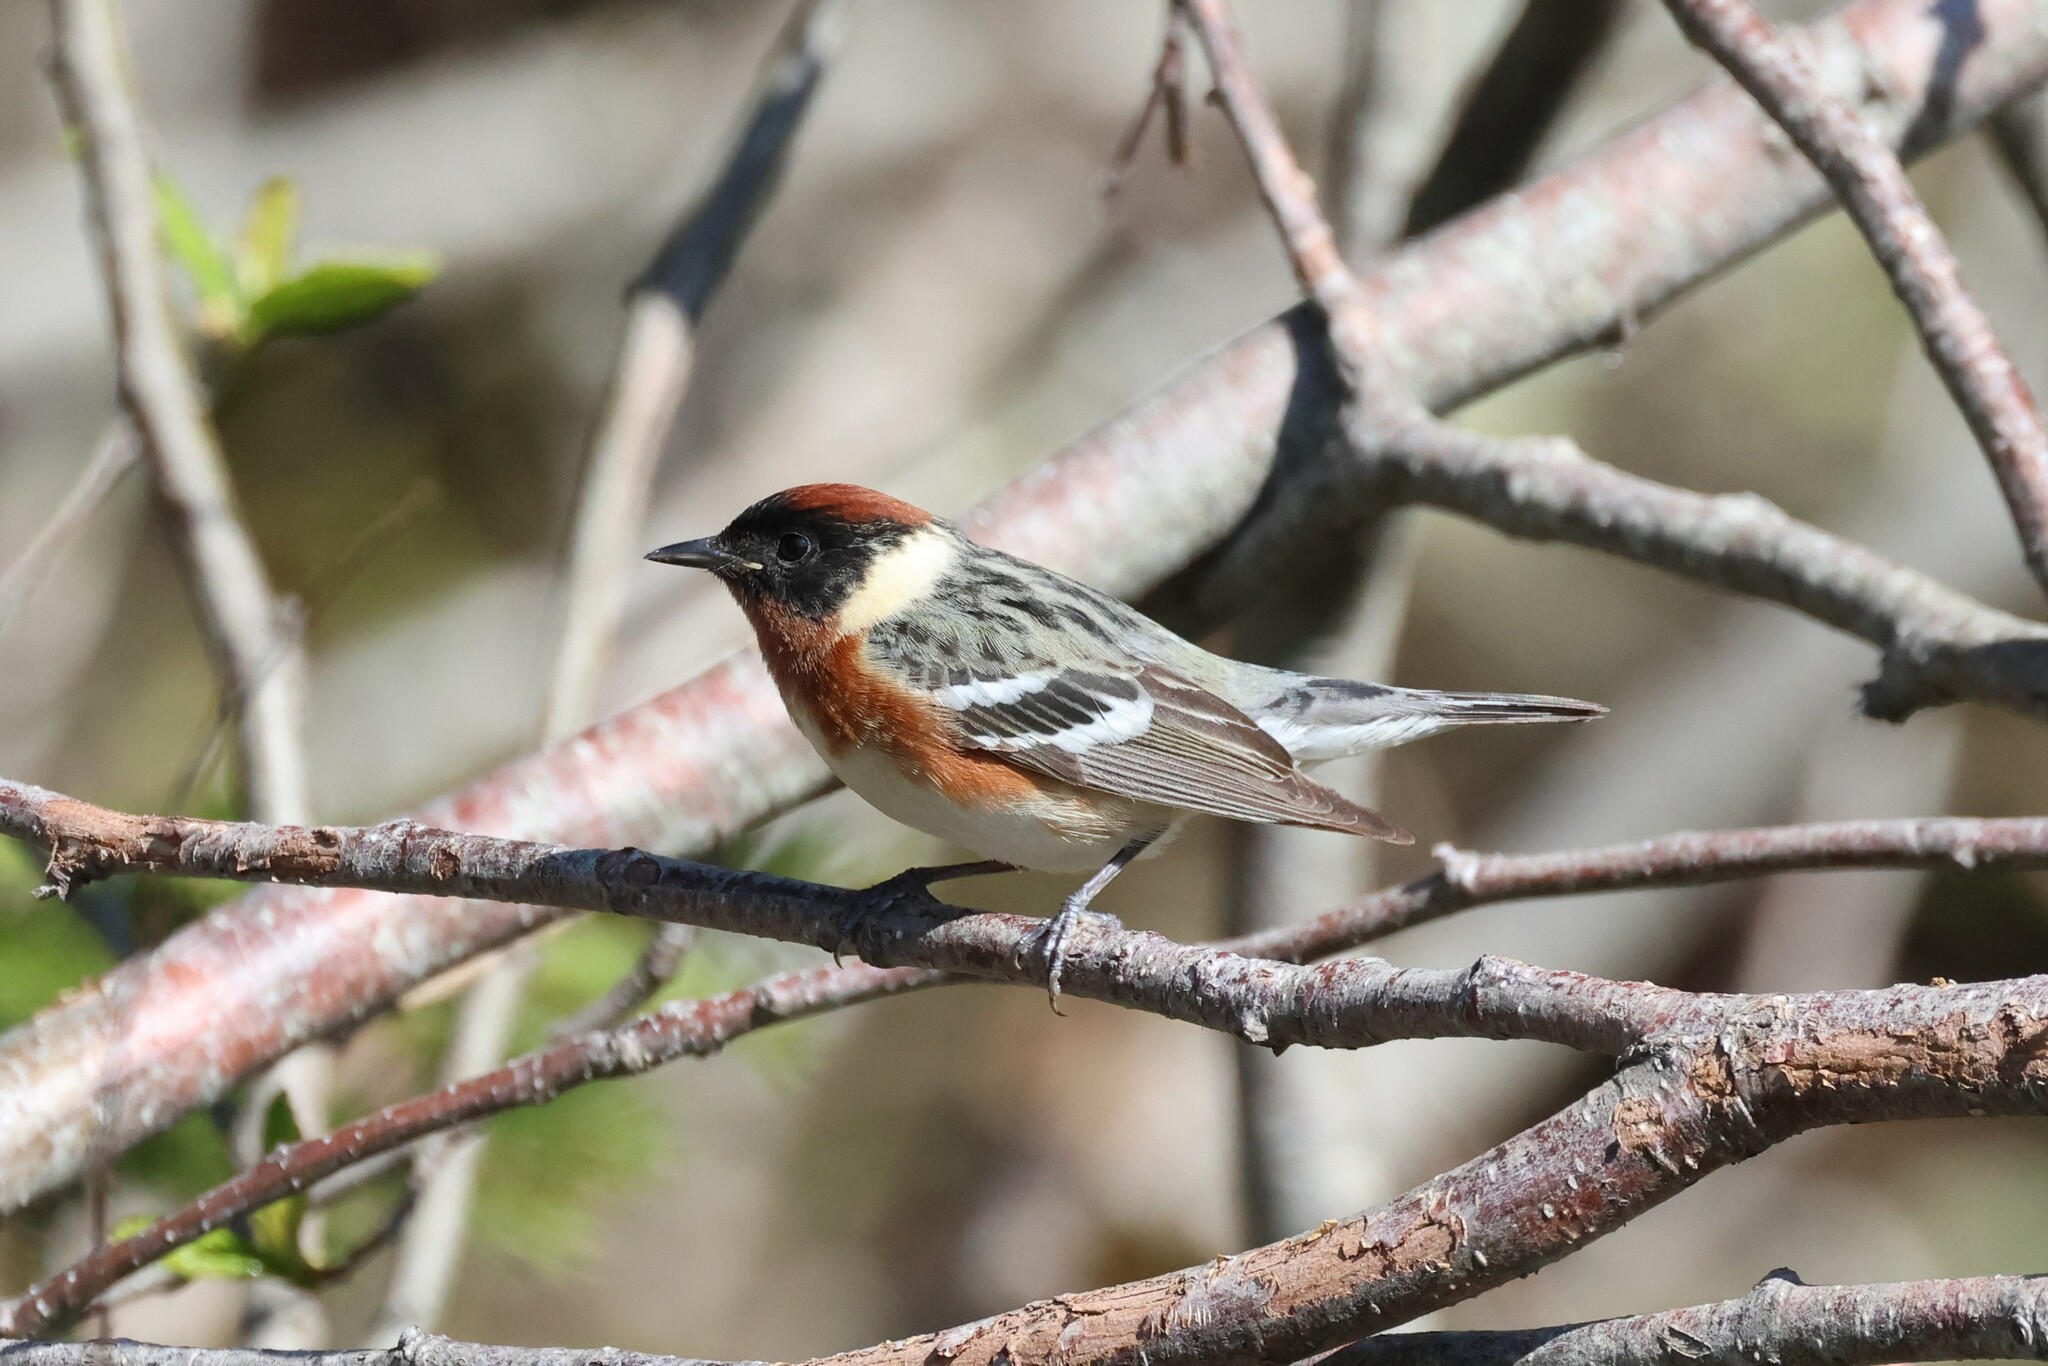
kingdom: Animalia
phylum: Chordata
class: Aves
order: Passeriformes
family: Parulidae
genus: Setophaga
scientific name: Setophaga castanea
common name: Bay-breasted warbler
